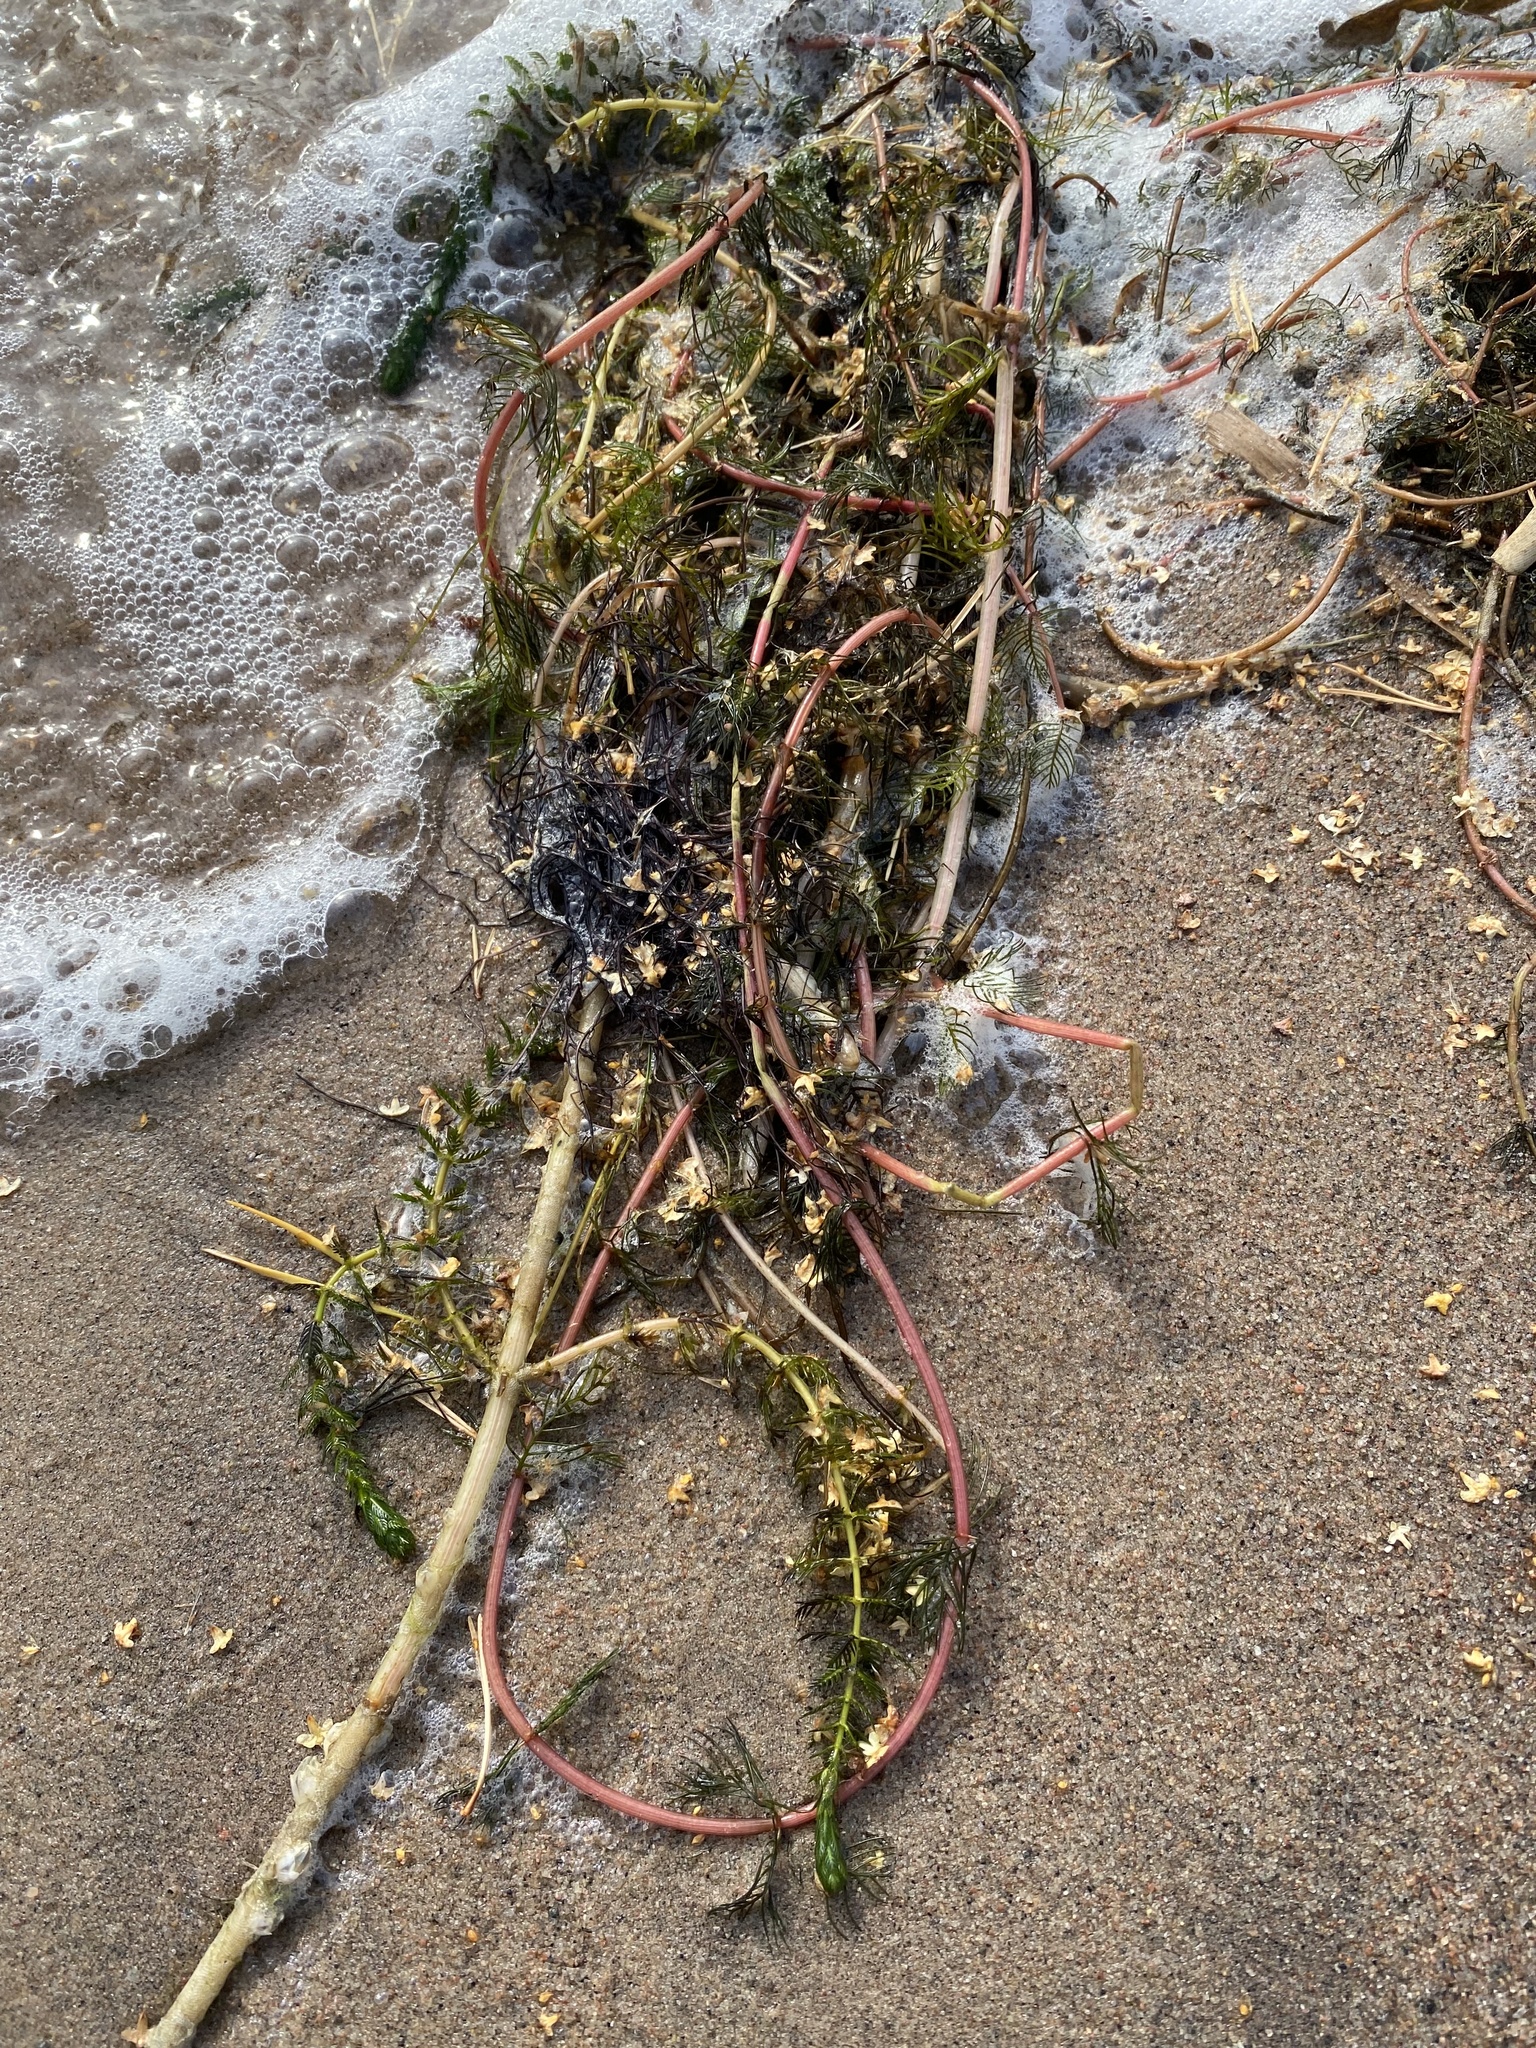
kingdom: Plantae
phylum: Tracheophyta
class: Magnoliopsida
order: Saxifragales
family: Haloragaceae
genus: Myriophyllum
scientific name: Myriophyllum sibiricum
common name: Siberian water-milfoil
